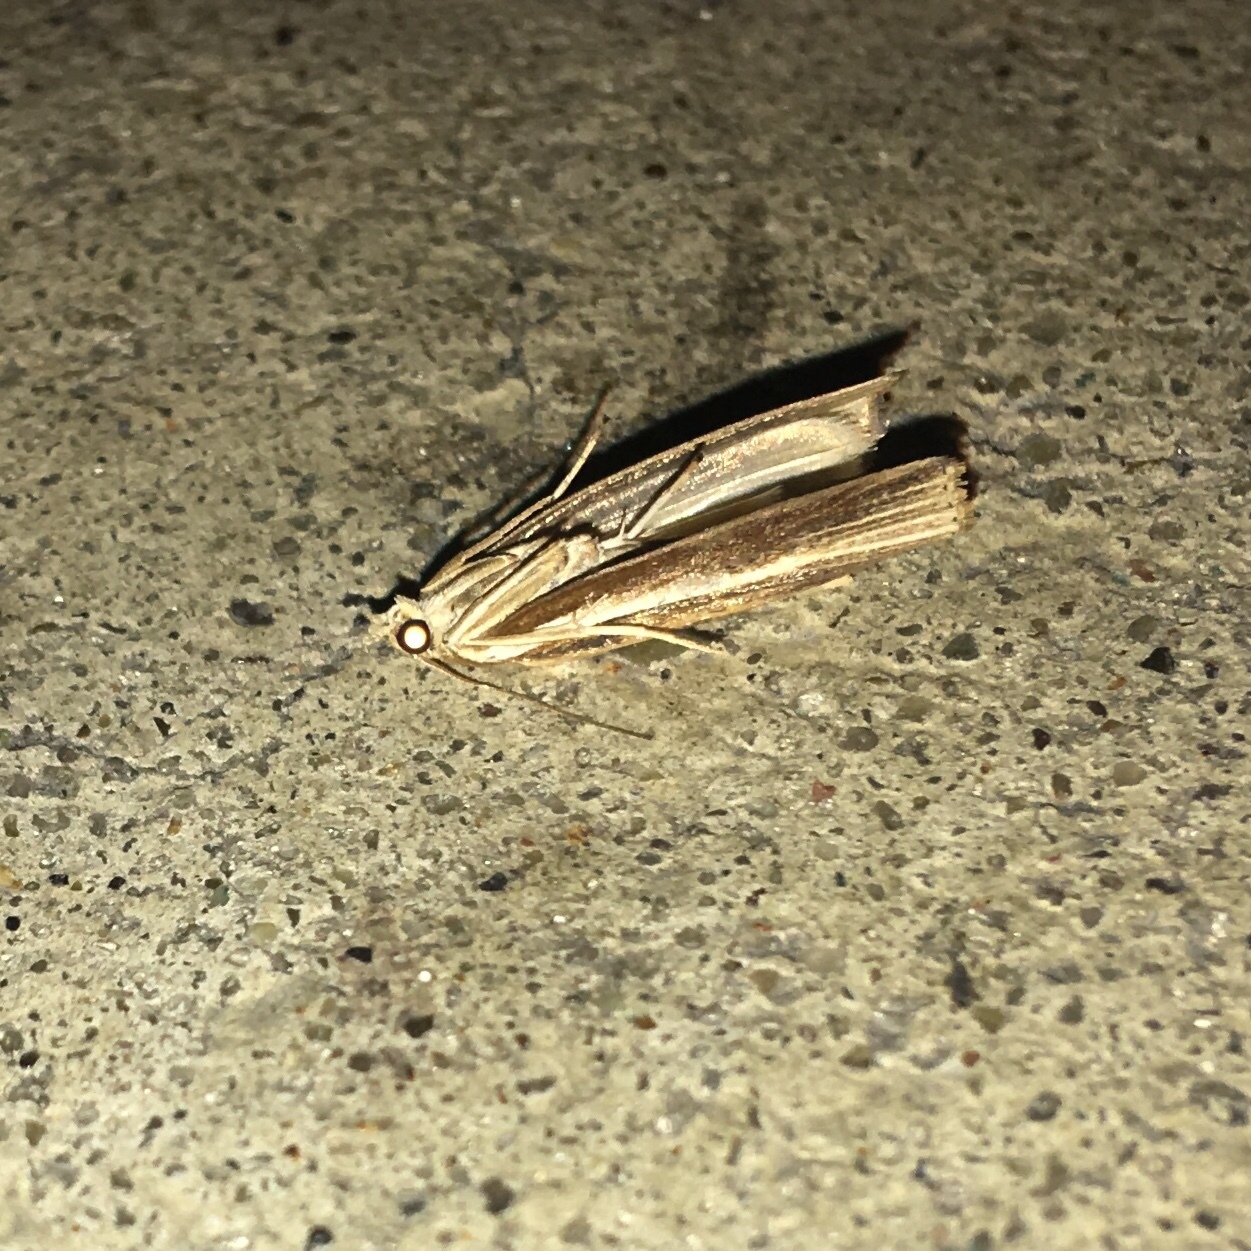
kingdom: Animalia
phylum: Arthropoda
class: Insecta
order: Lepidoptera
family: Crambidae
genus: Fissicrambus
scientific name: Fissicrambus fissiradiellus
